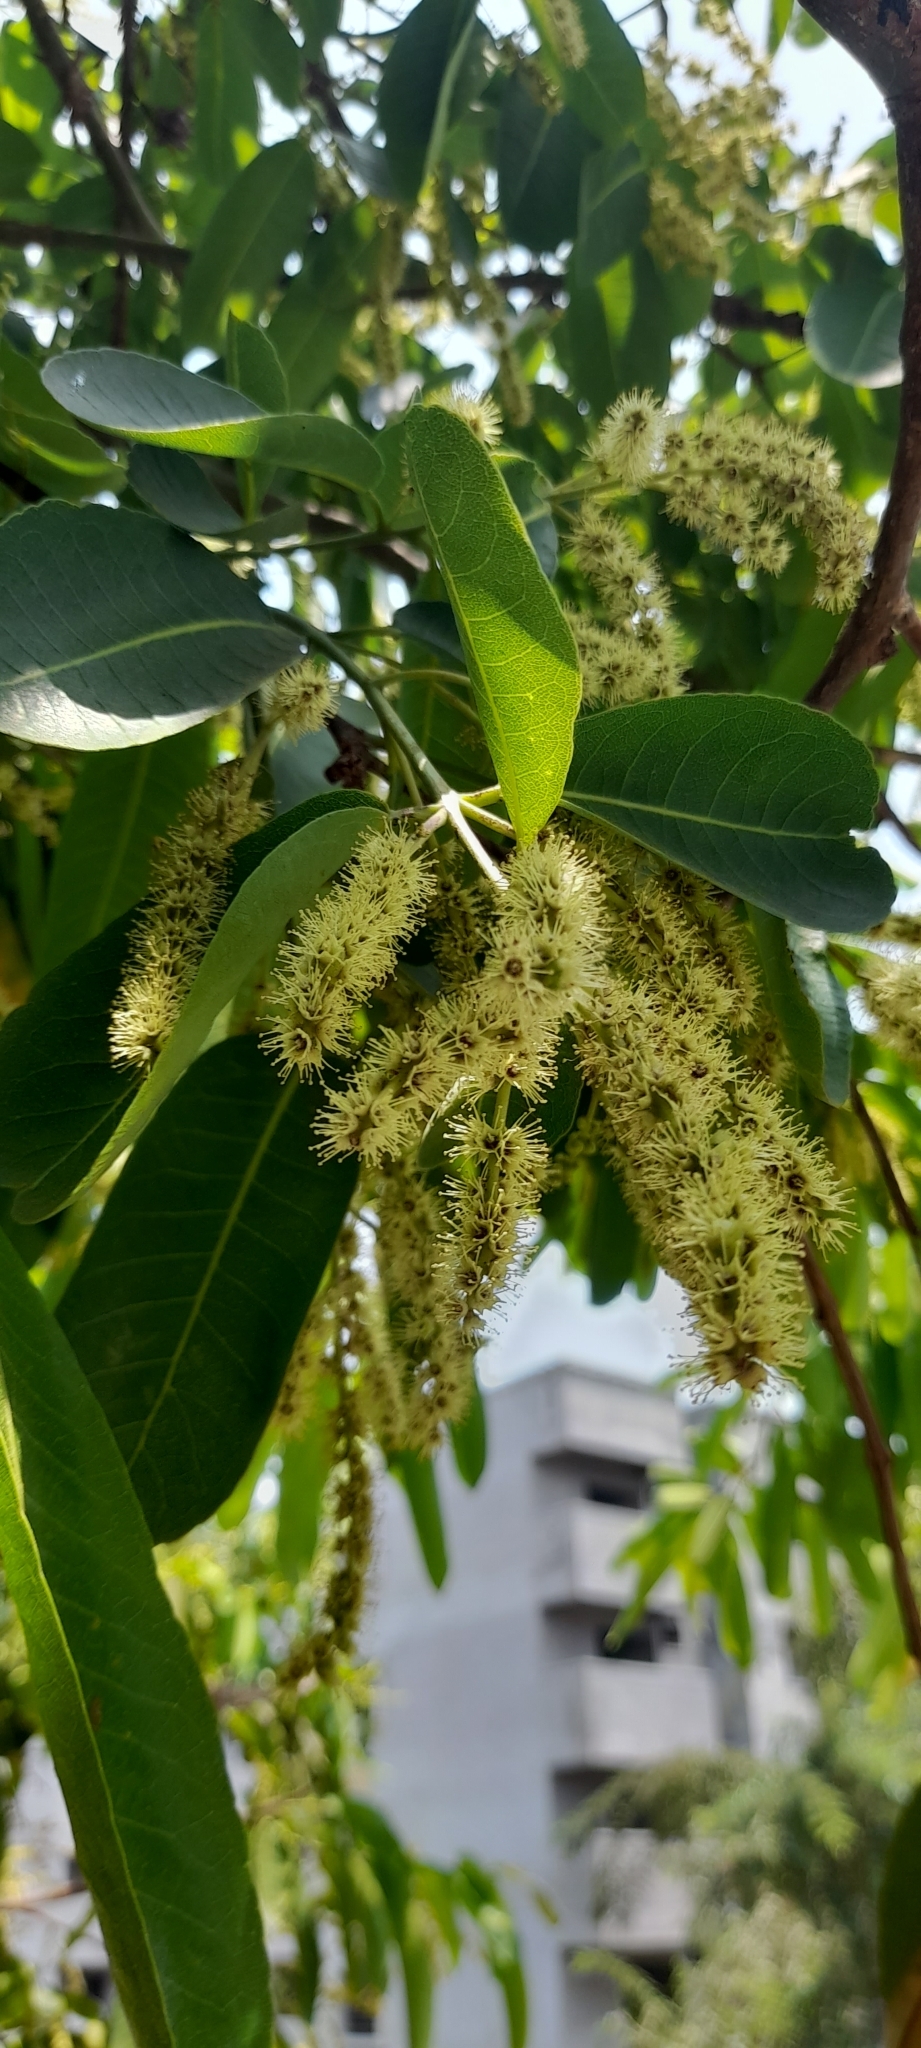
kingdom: Plantae
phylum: Tracheophyta
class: Magnoliopsida
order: Myrtales
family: Combretaceae
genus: Terminalia
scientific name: Terminalia arjuna
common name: Arjun
